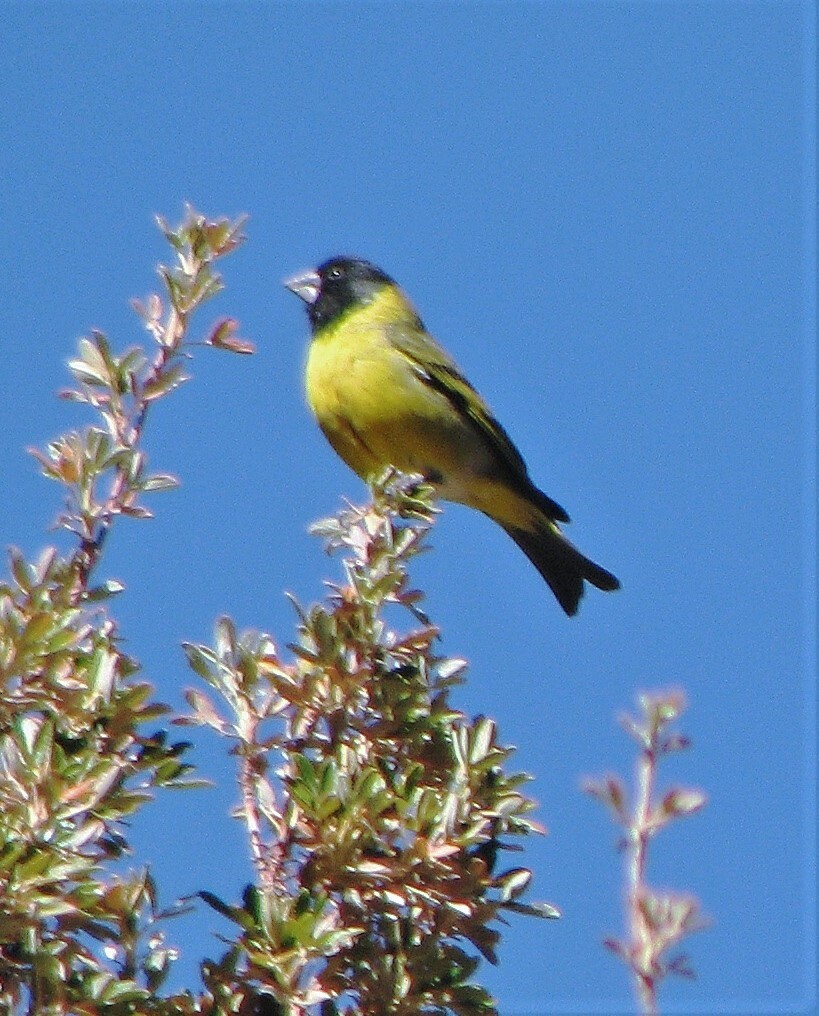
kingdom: Animalia
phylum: Chordata
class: Aves
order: Passeriformes
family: Fringillidae
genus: Spinus
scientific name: Spinus crassirostris
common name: Thick-billed siskin
